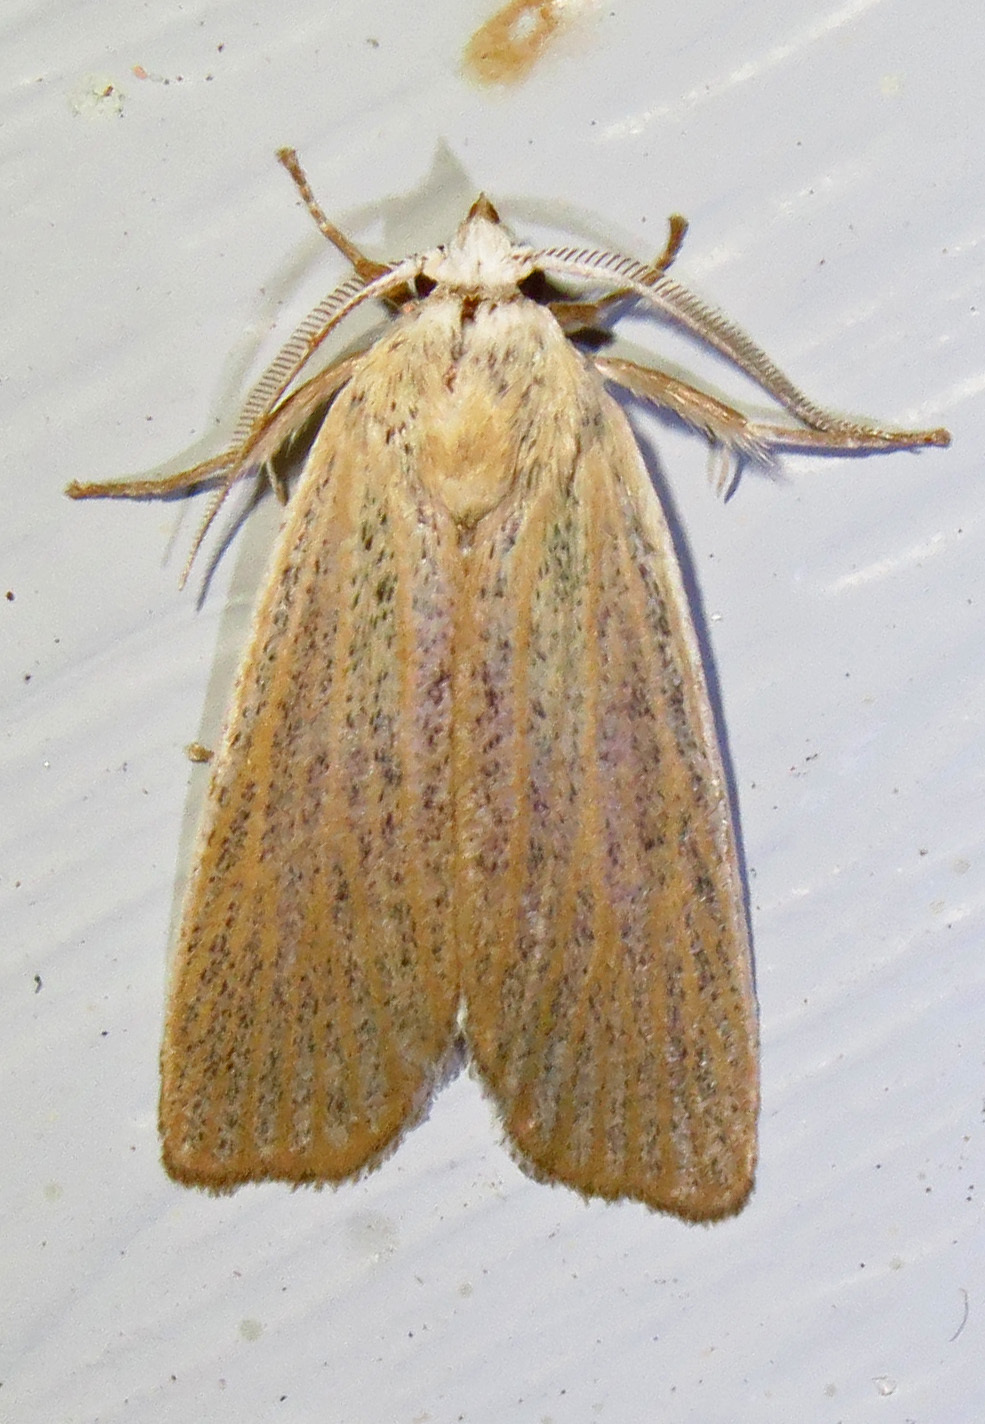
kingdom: Animalia
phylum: Arthropoda
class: Insecta
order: Lepidoptera
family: Erebidae
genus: Palpidia
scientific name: Palpidia pallidior
